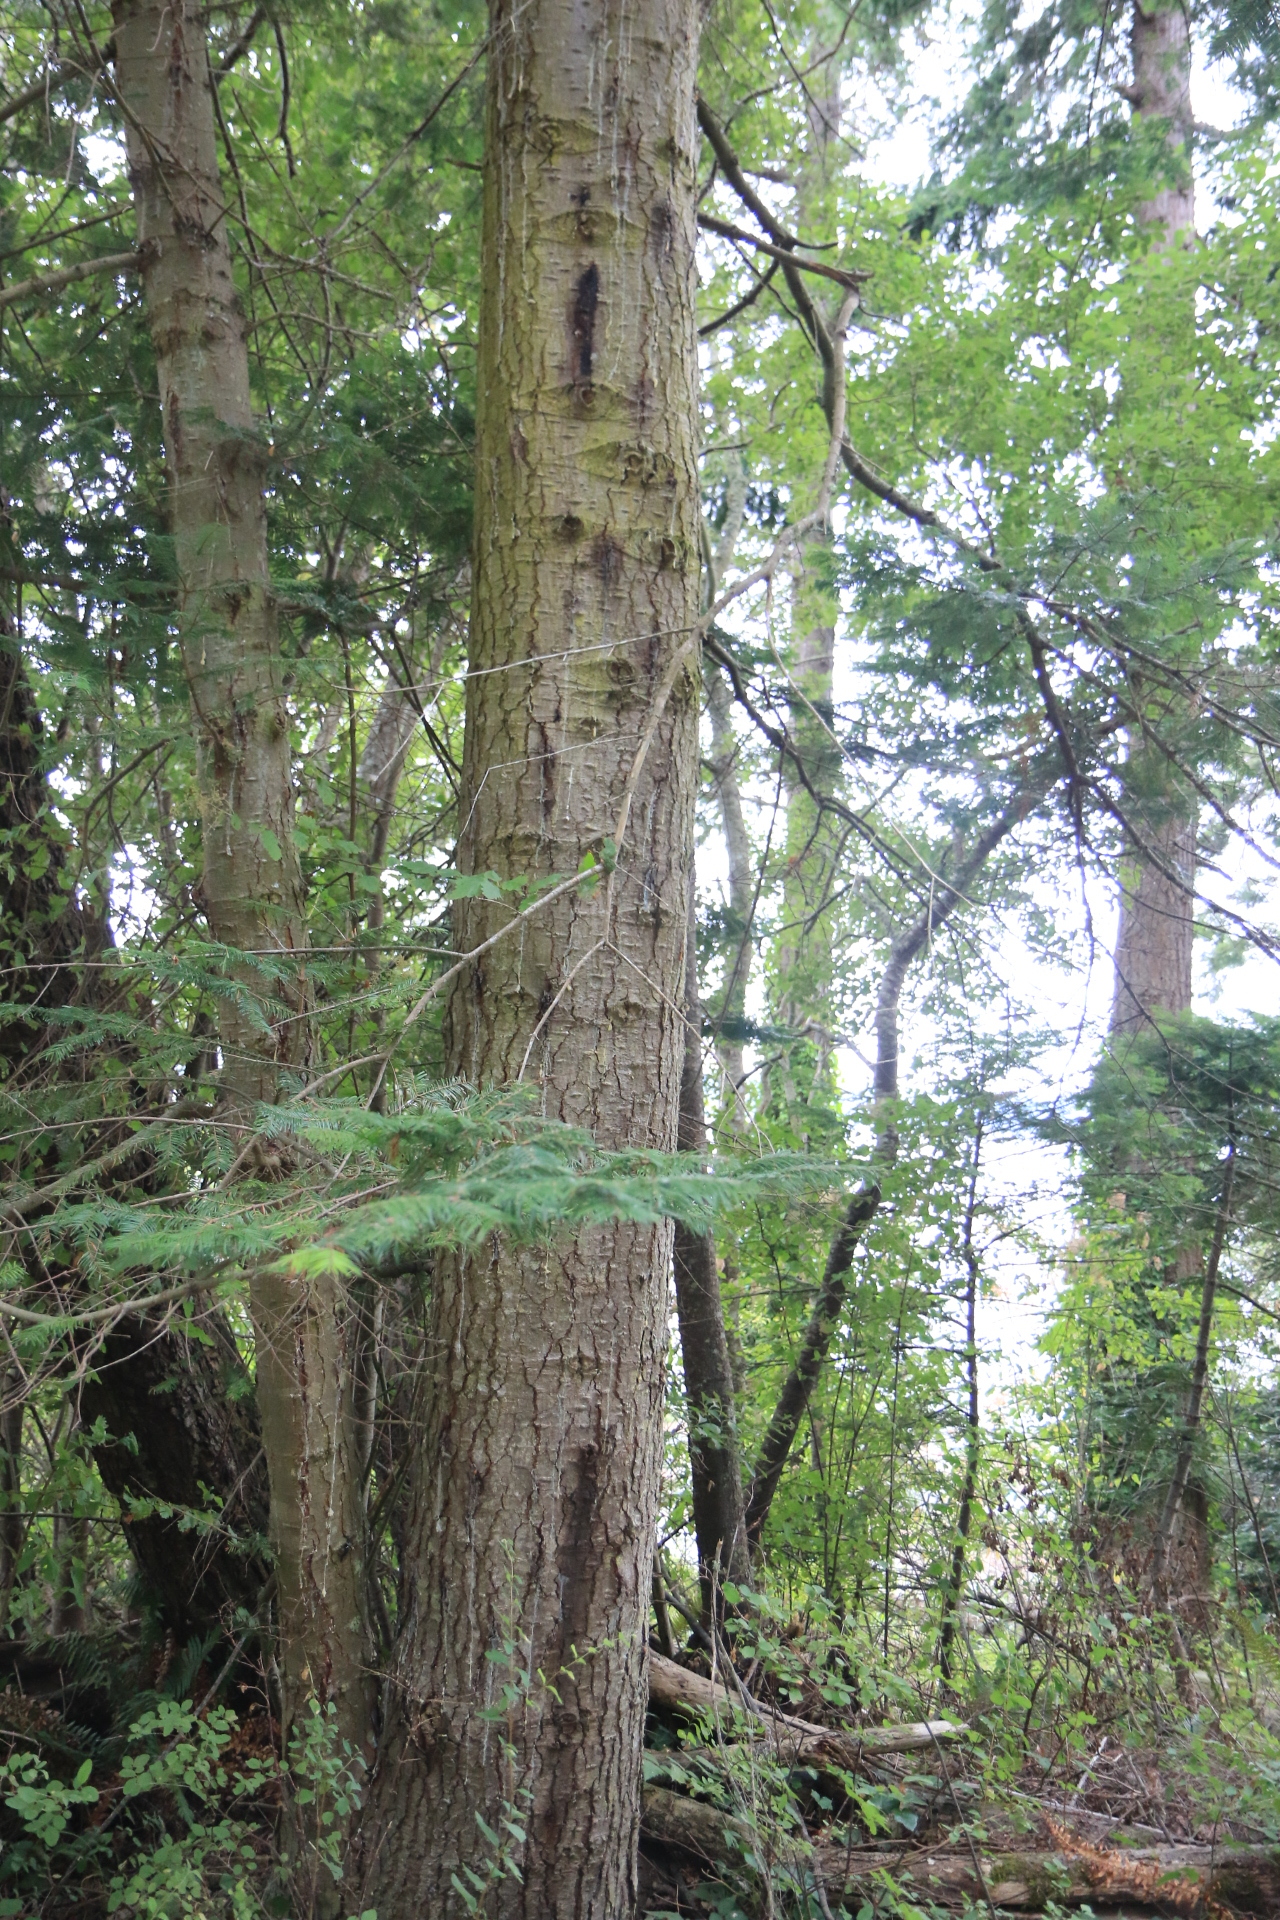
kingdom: Plantae
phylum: Tracheophyta
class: Pinopsida
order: Pinales
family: Pinaceae
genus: Abies
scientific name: Abies grandis
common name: Giant fir
